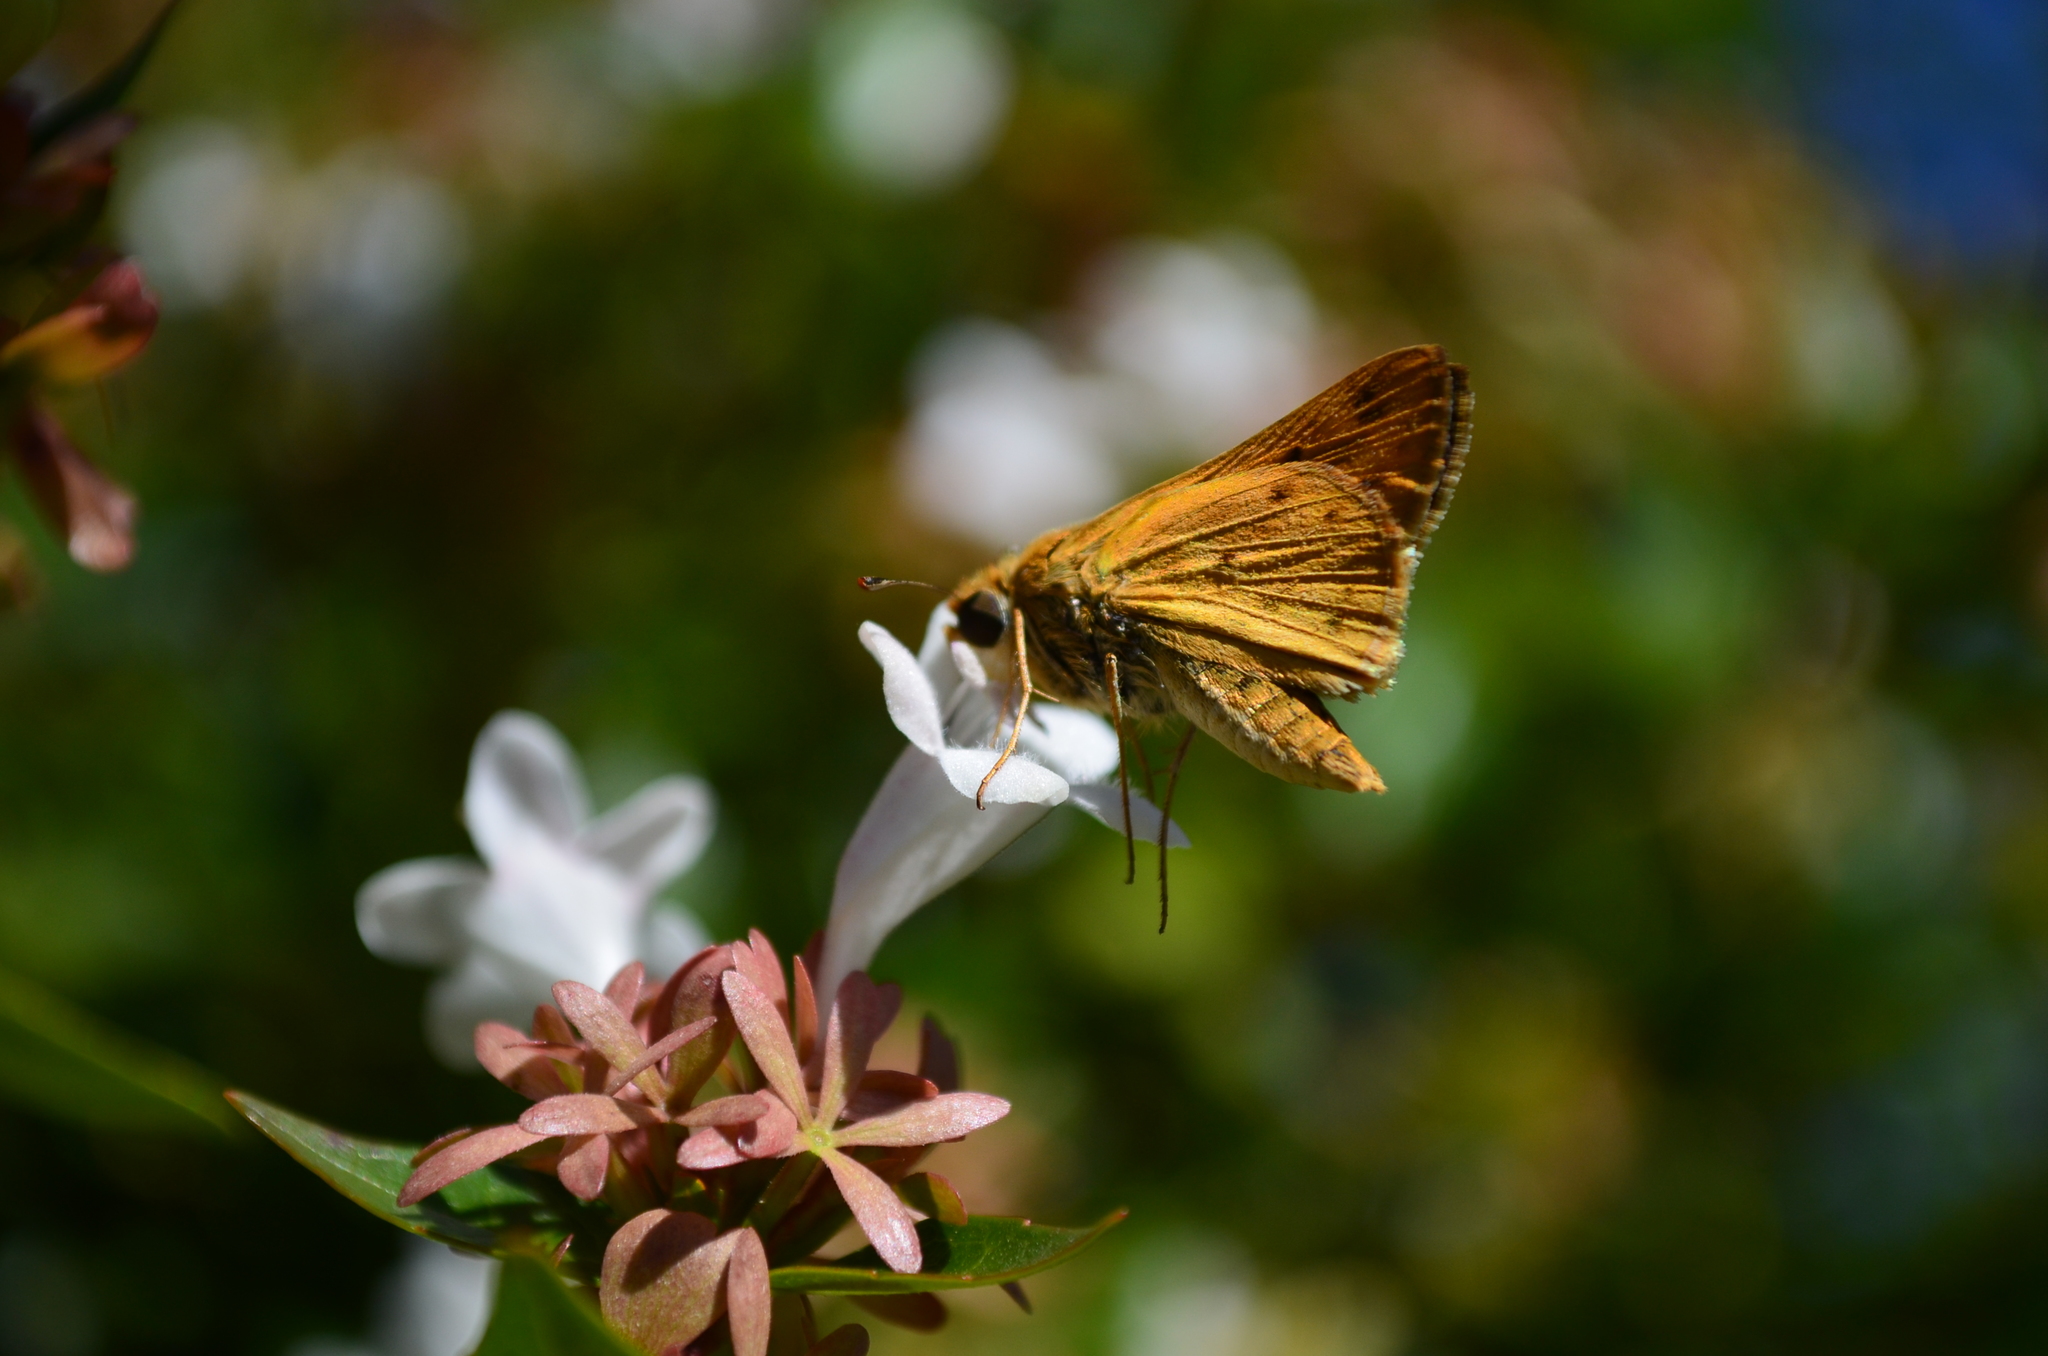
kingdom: Animalia
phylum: Arthropoda
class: Insecta
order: Lepidoptera
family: Hesperiidae
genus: Hylephila
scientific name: Hylephila phyleus
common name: Fiery skipper
